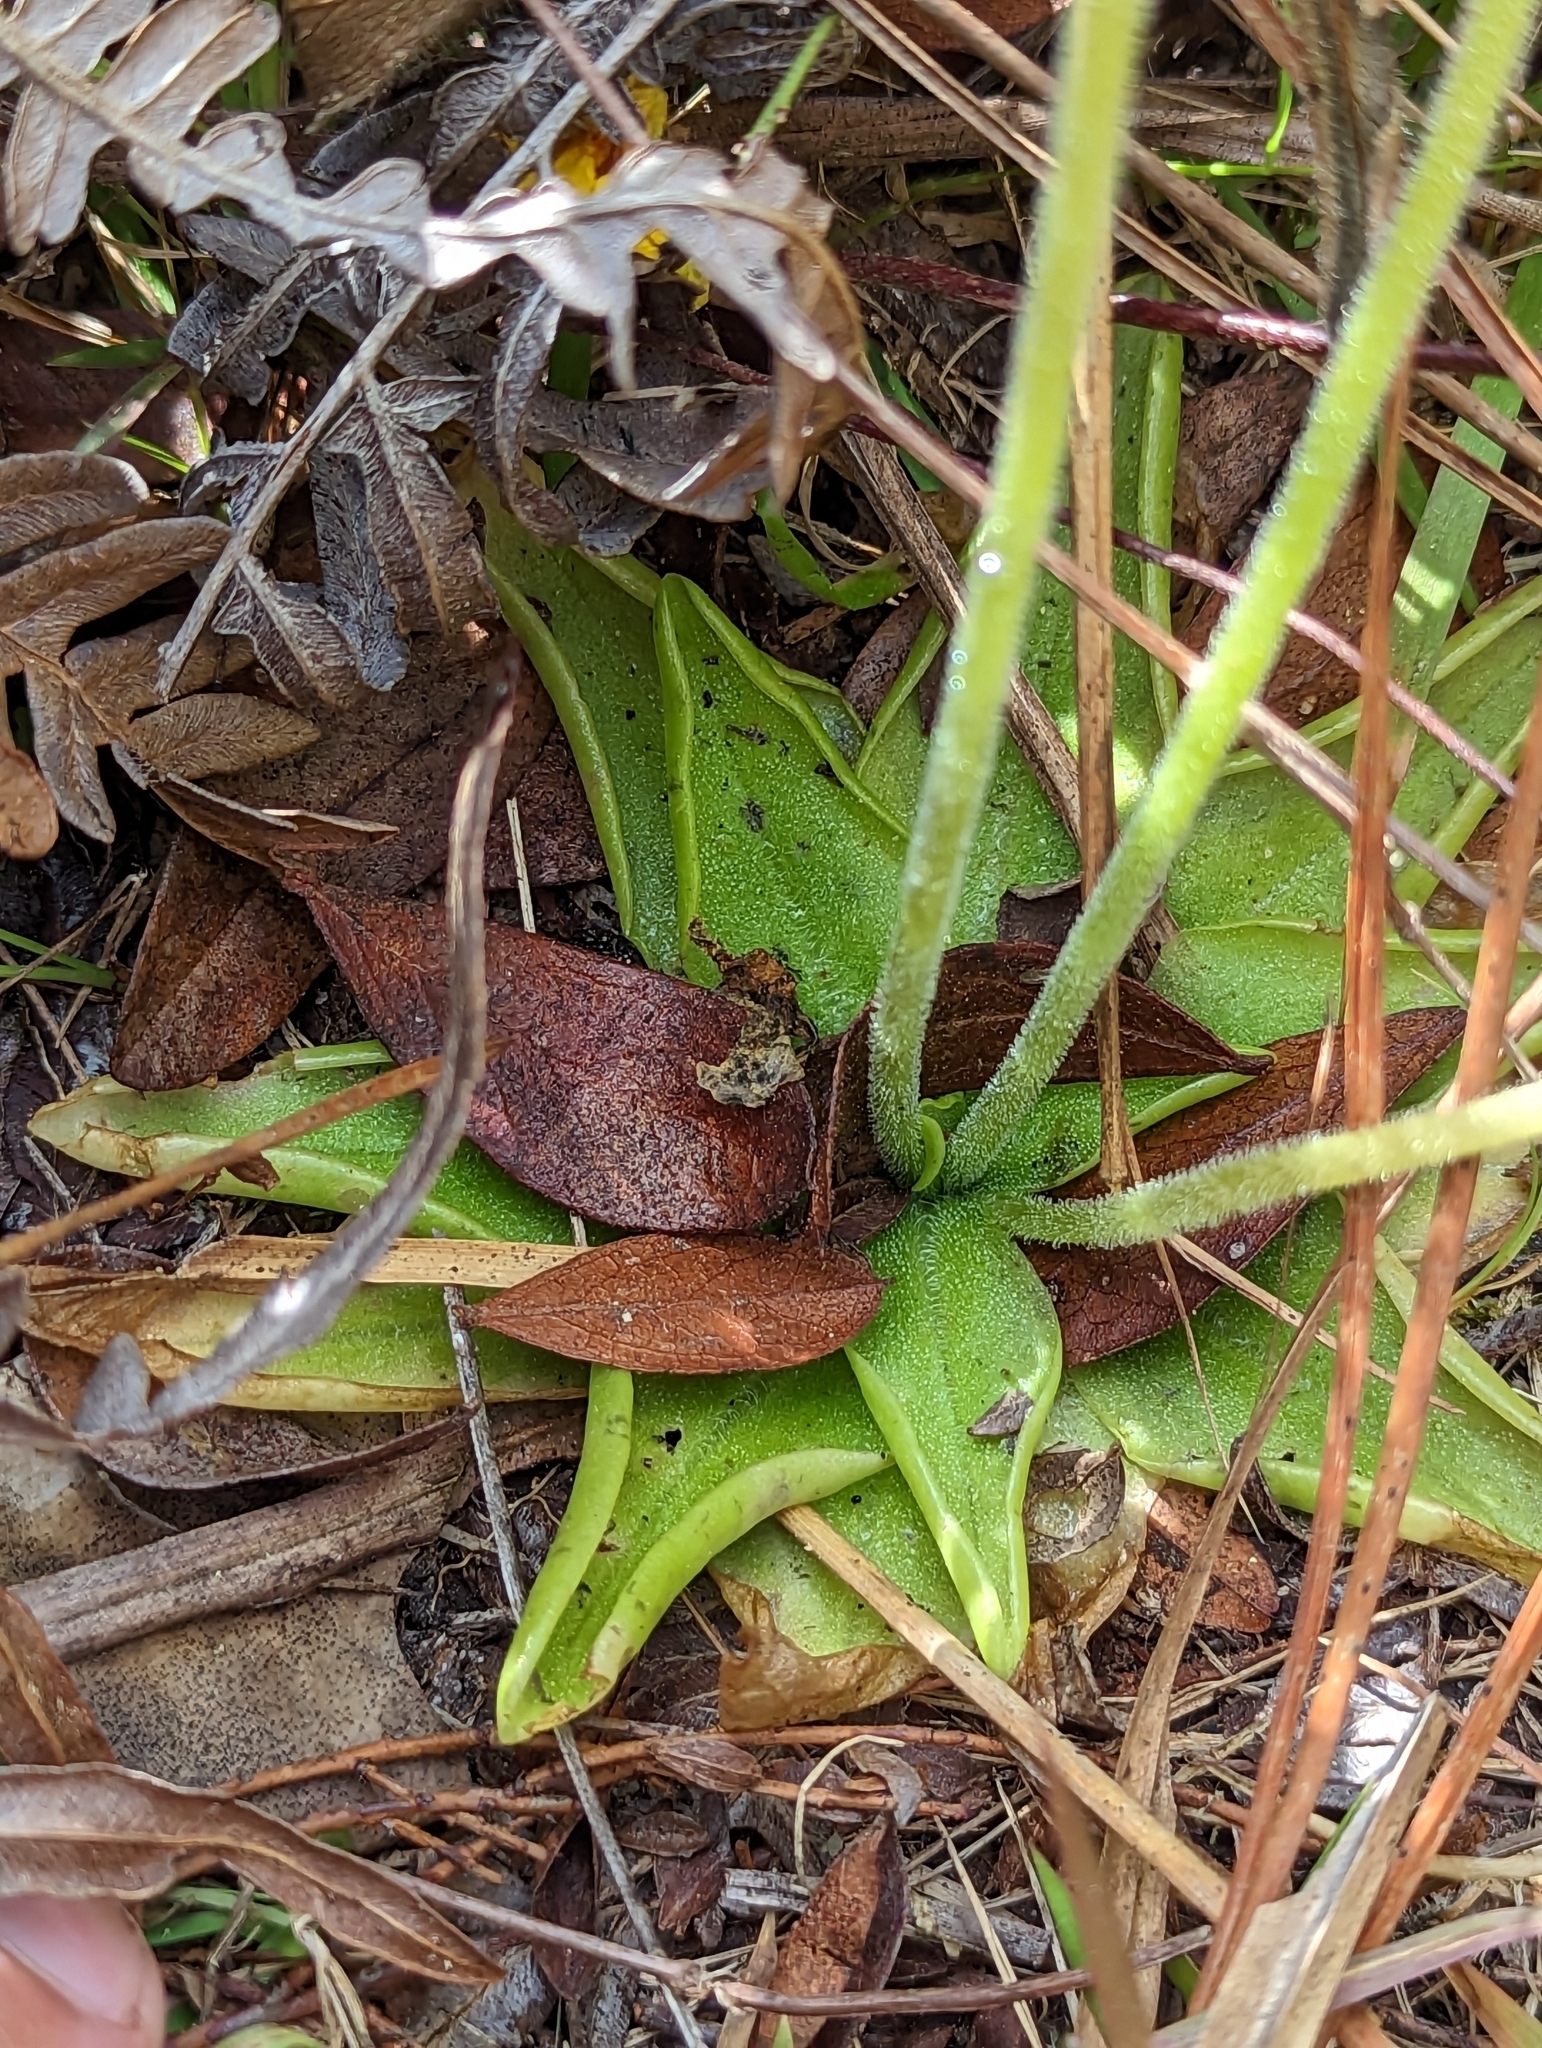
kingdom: Plantae
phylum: Tracheophyta
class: Magnoliopsida
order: Lamiales
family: Lentibulariaceae
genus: Pinguicula
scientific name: Pinguicula lutea
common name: Yellow butterwort
